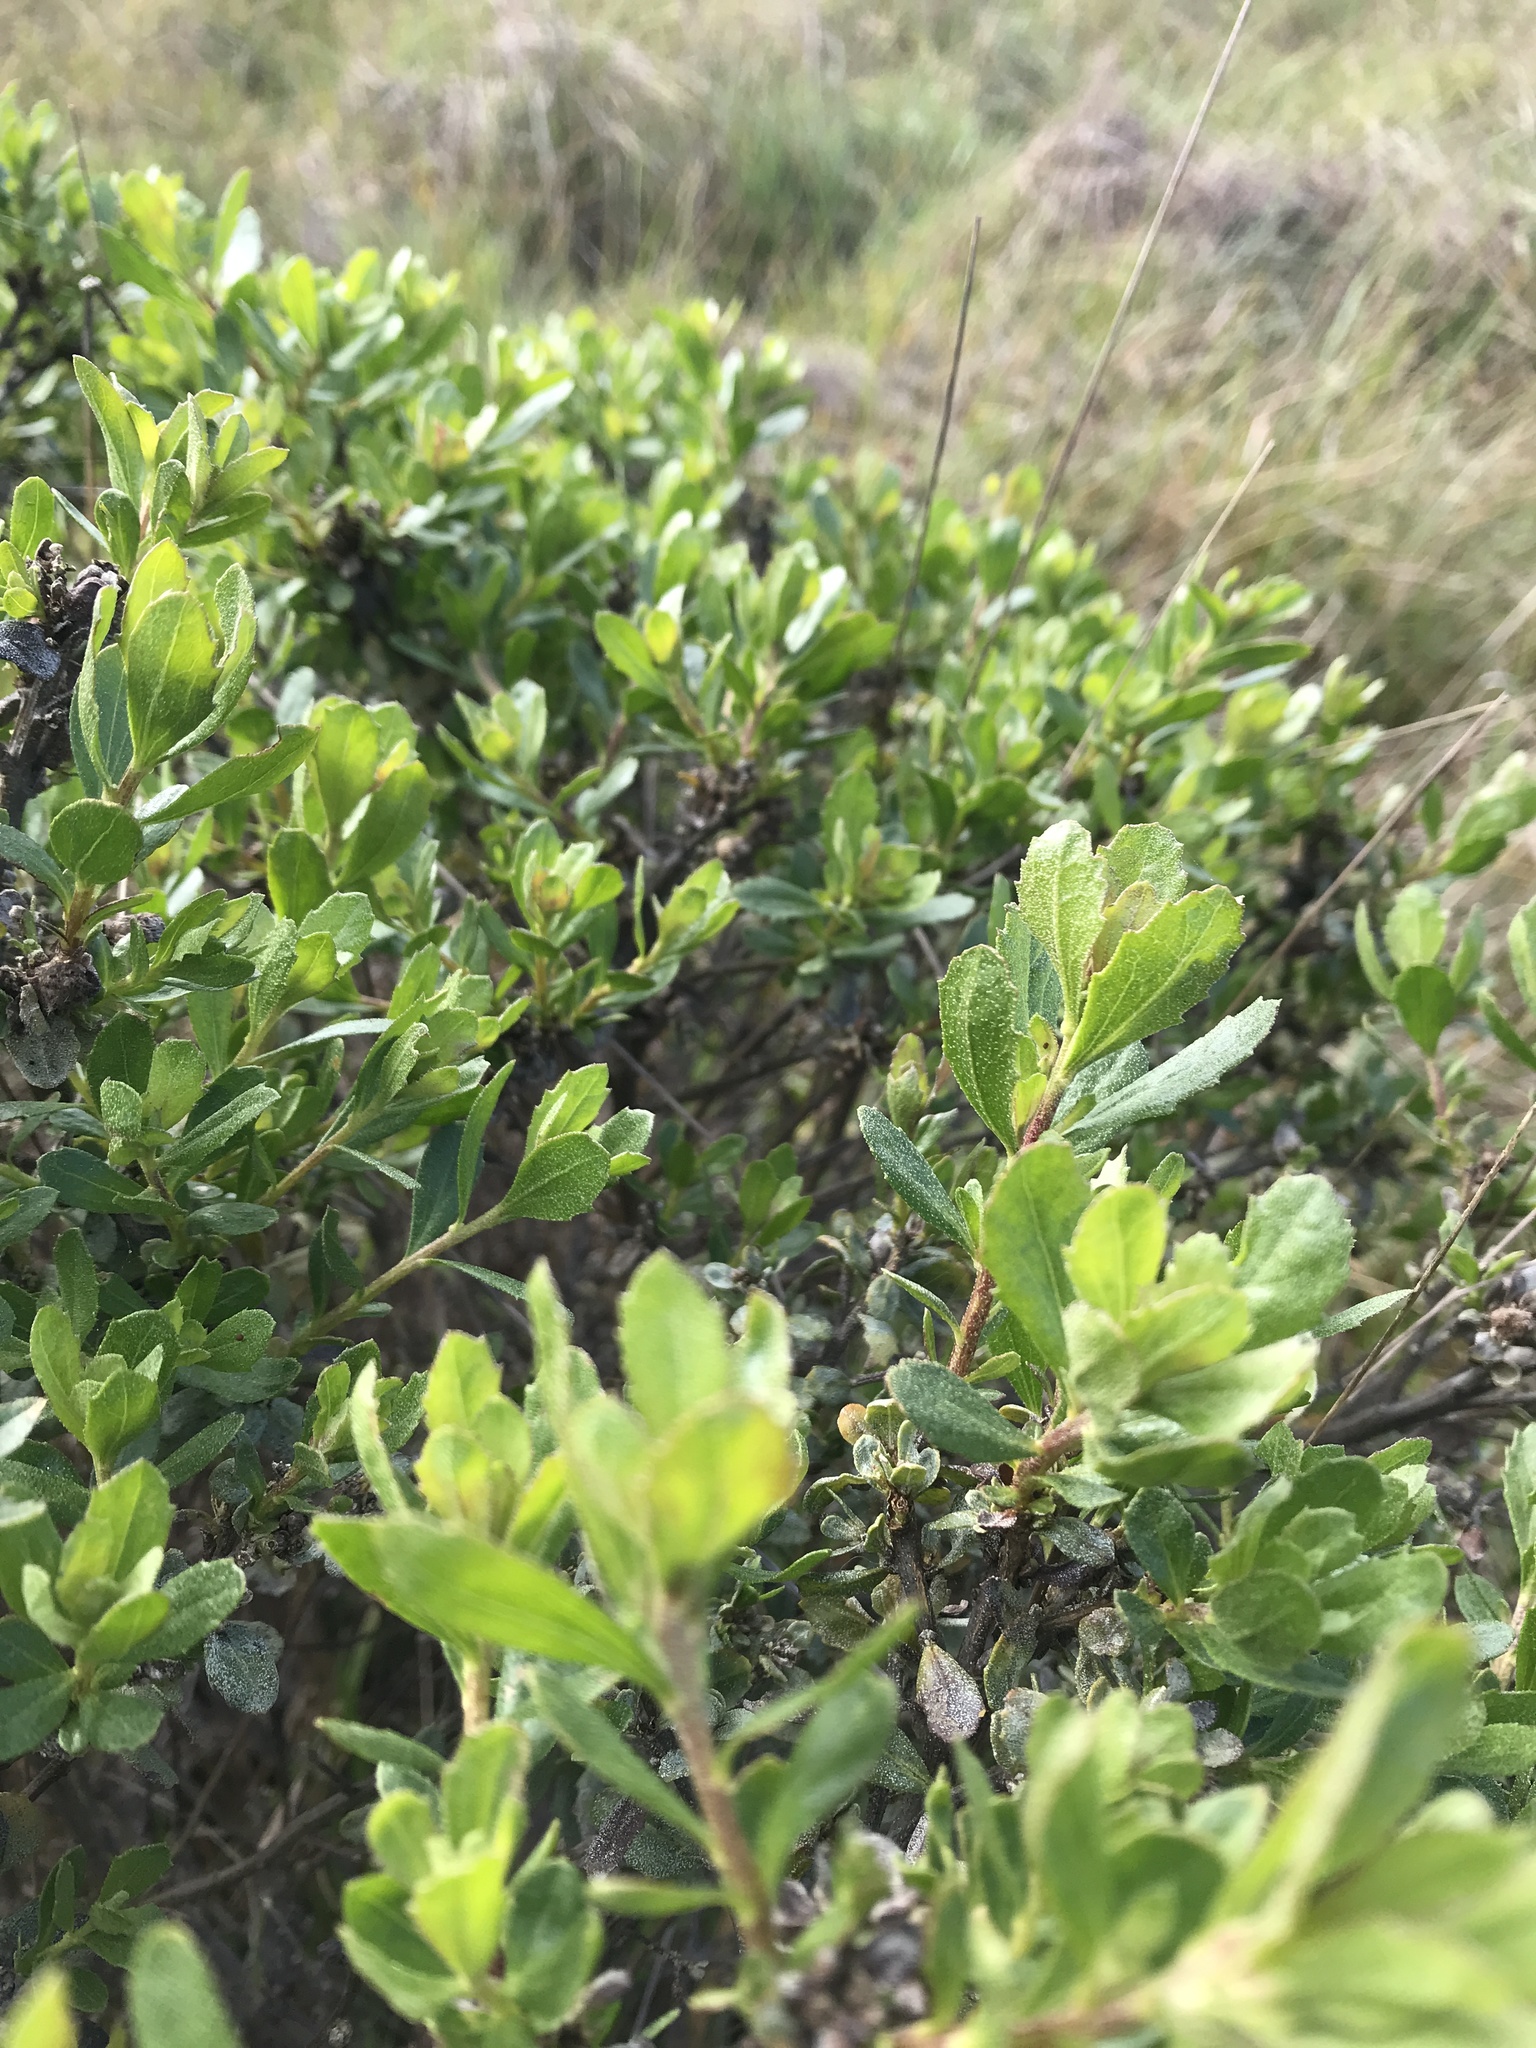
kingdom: Plantae
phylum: Tracheophyta
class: Magnoliopsida
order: Asterales
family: Asteraceae
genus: Baccharis
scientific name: Baccharis pilularis
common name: Coyotebrush
